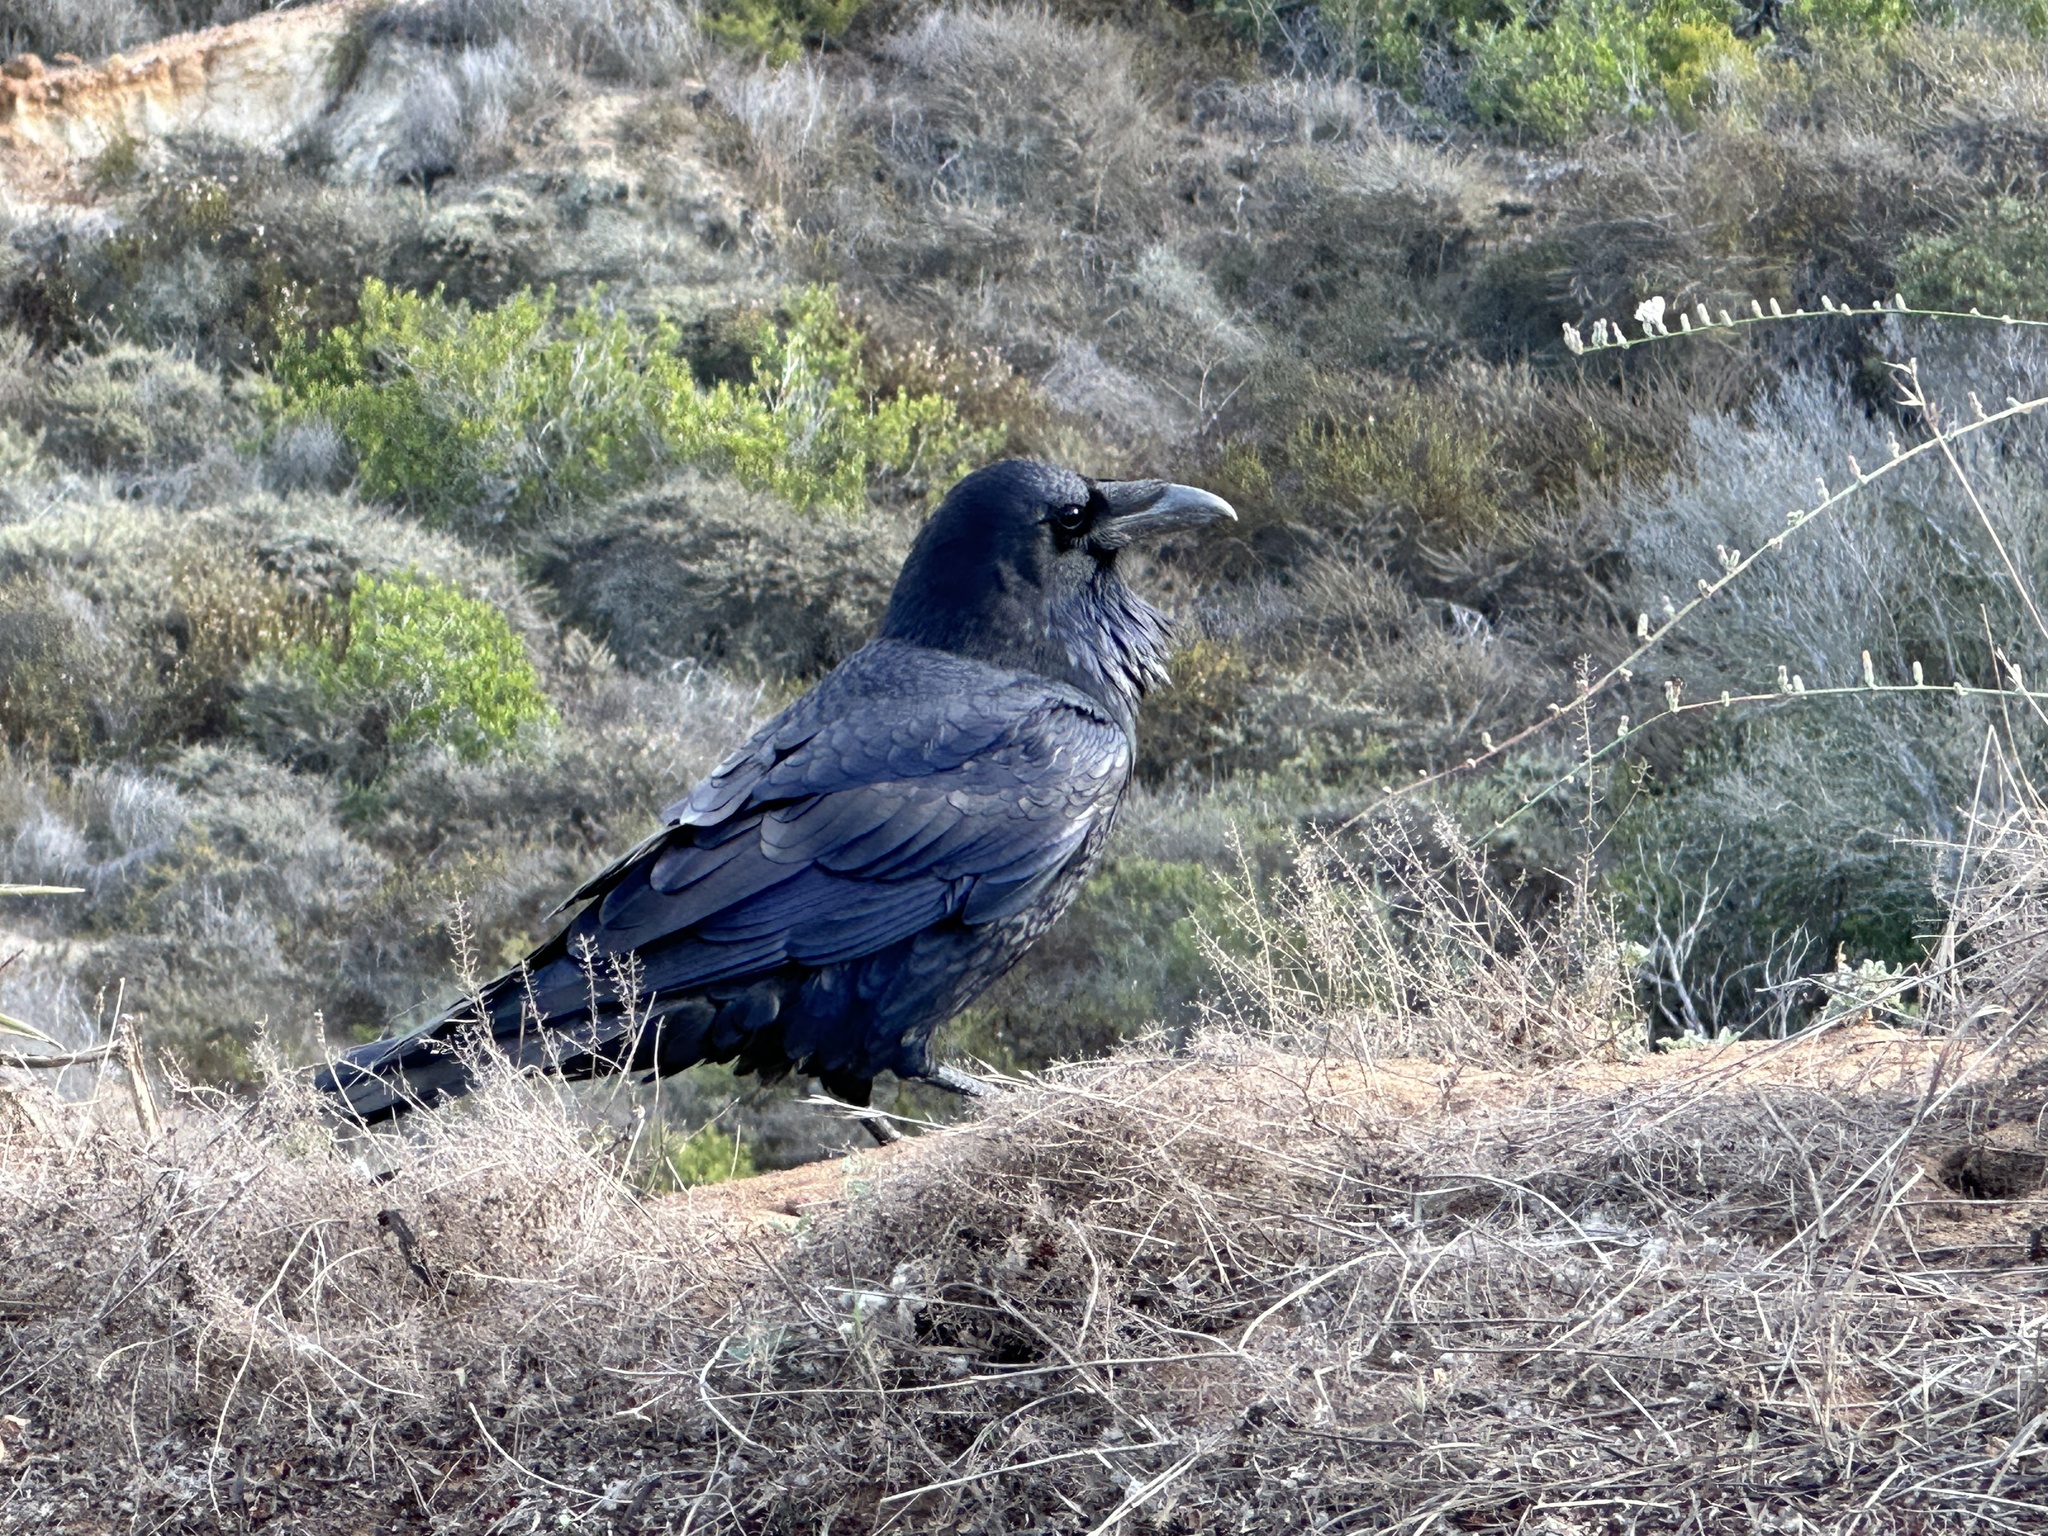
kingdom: Animalia
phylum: Chordata
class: Aves
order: Passeriformes
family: Corvidae
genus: Corvus
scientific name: Corvus corax
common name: Common raven
